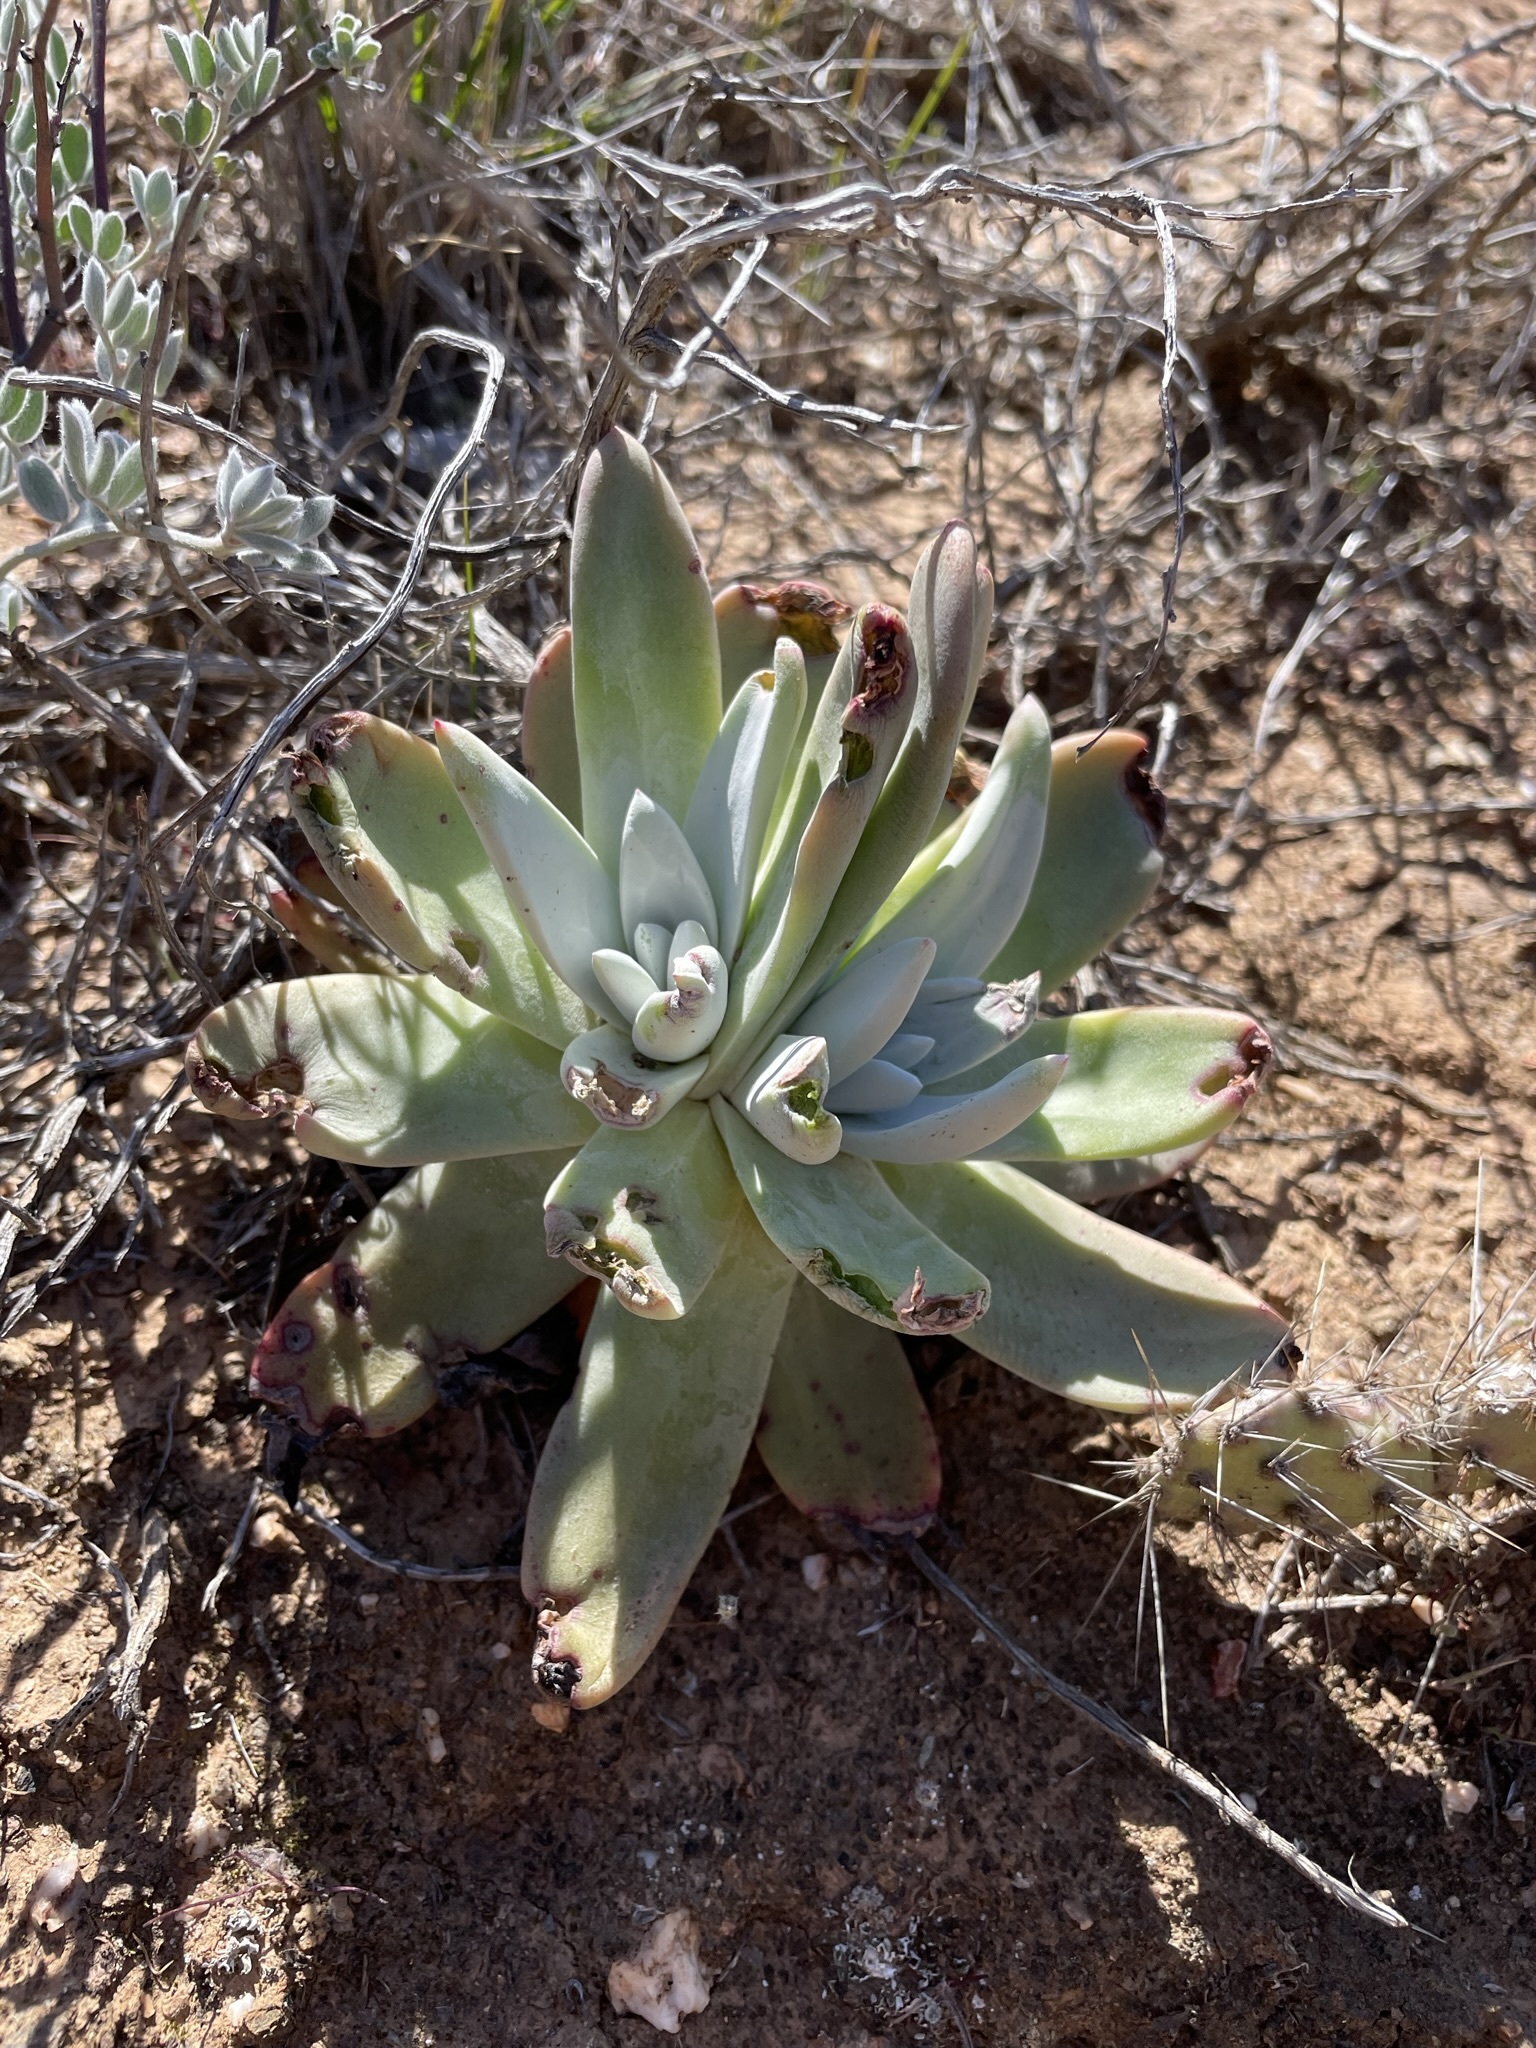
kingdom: Plantae
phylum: Tracheophyta
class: Magnoliopsida
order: Saxifragales
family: Crassulaceae
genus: Dudleya
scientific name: Dudleya virens
